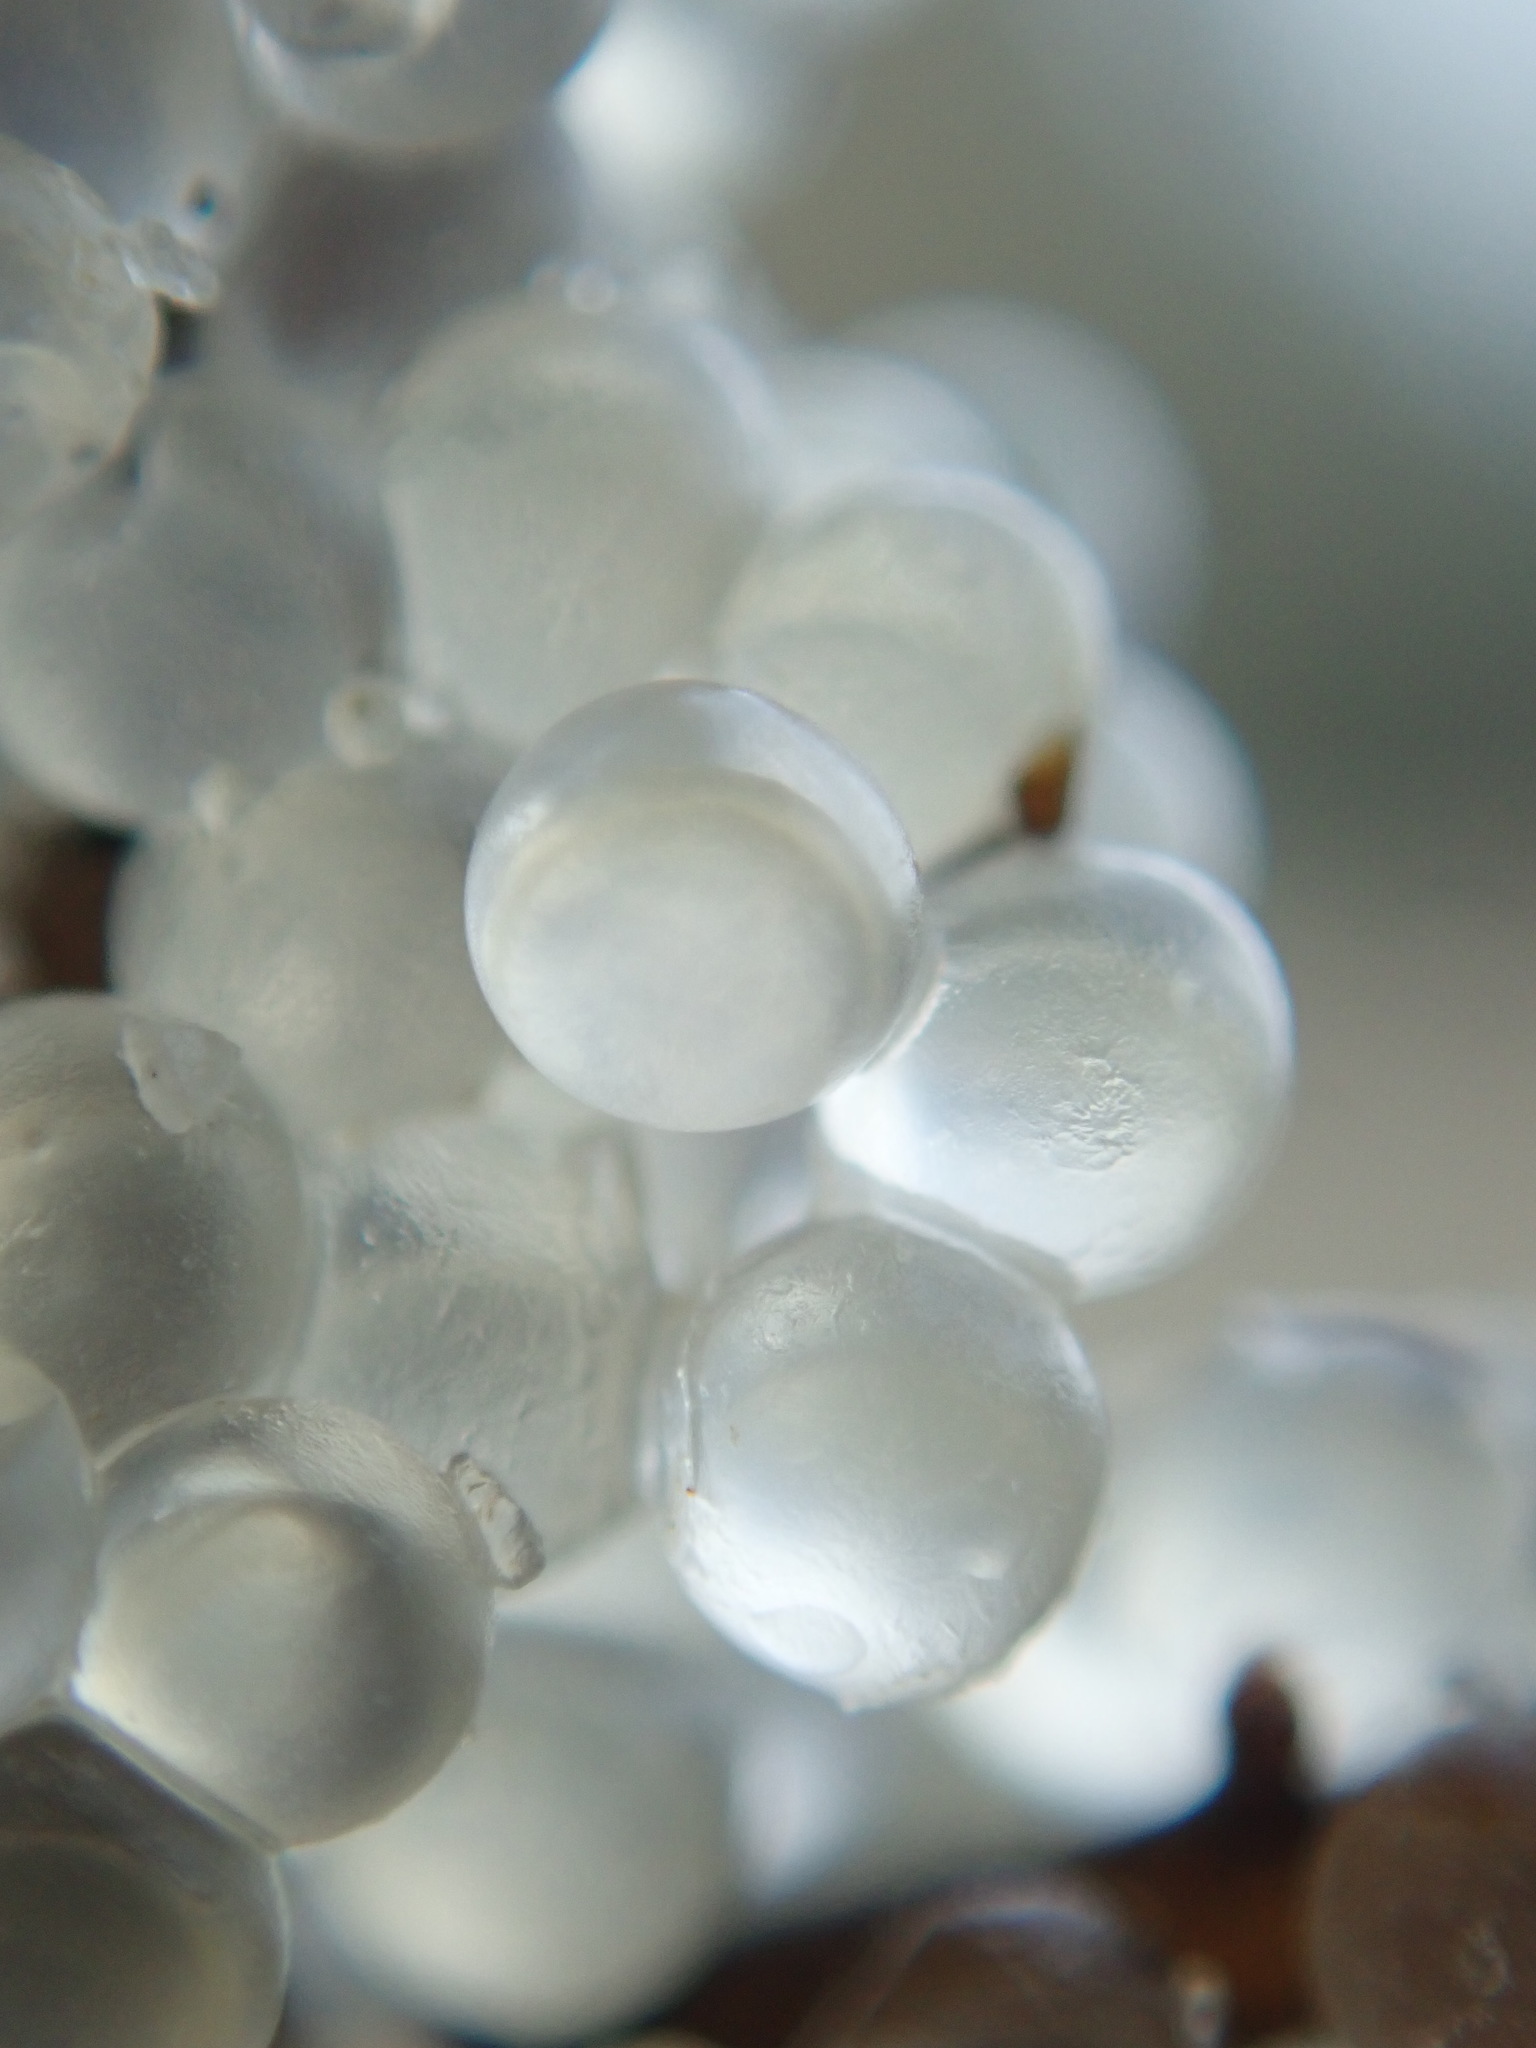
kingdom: Animalia
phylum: Chordata
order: Clupeiformes
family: Clupeidae
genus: Clupea
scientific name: Clupea pallasii
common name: Pacific herring
